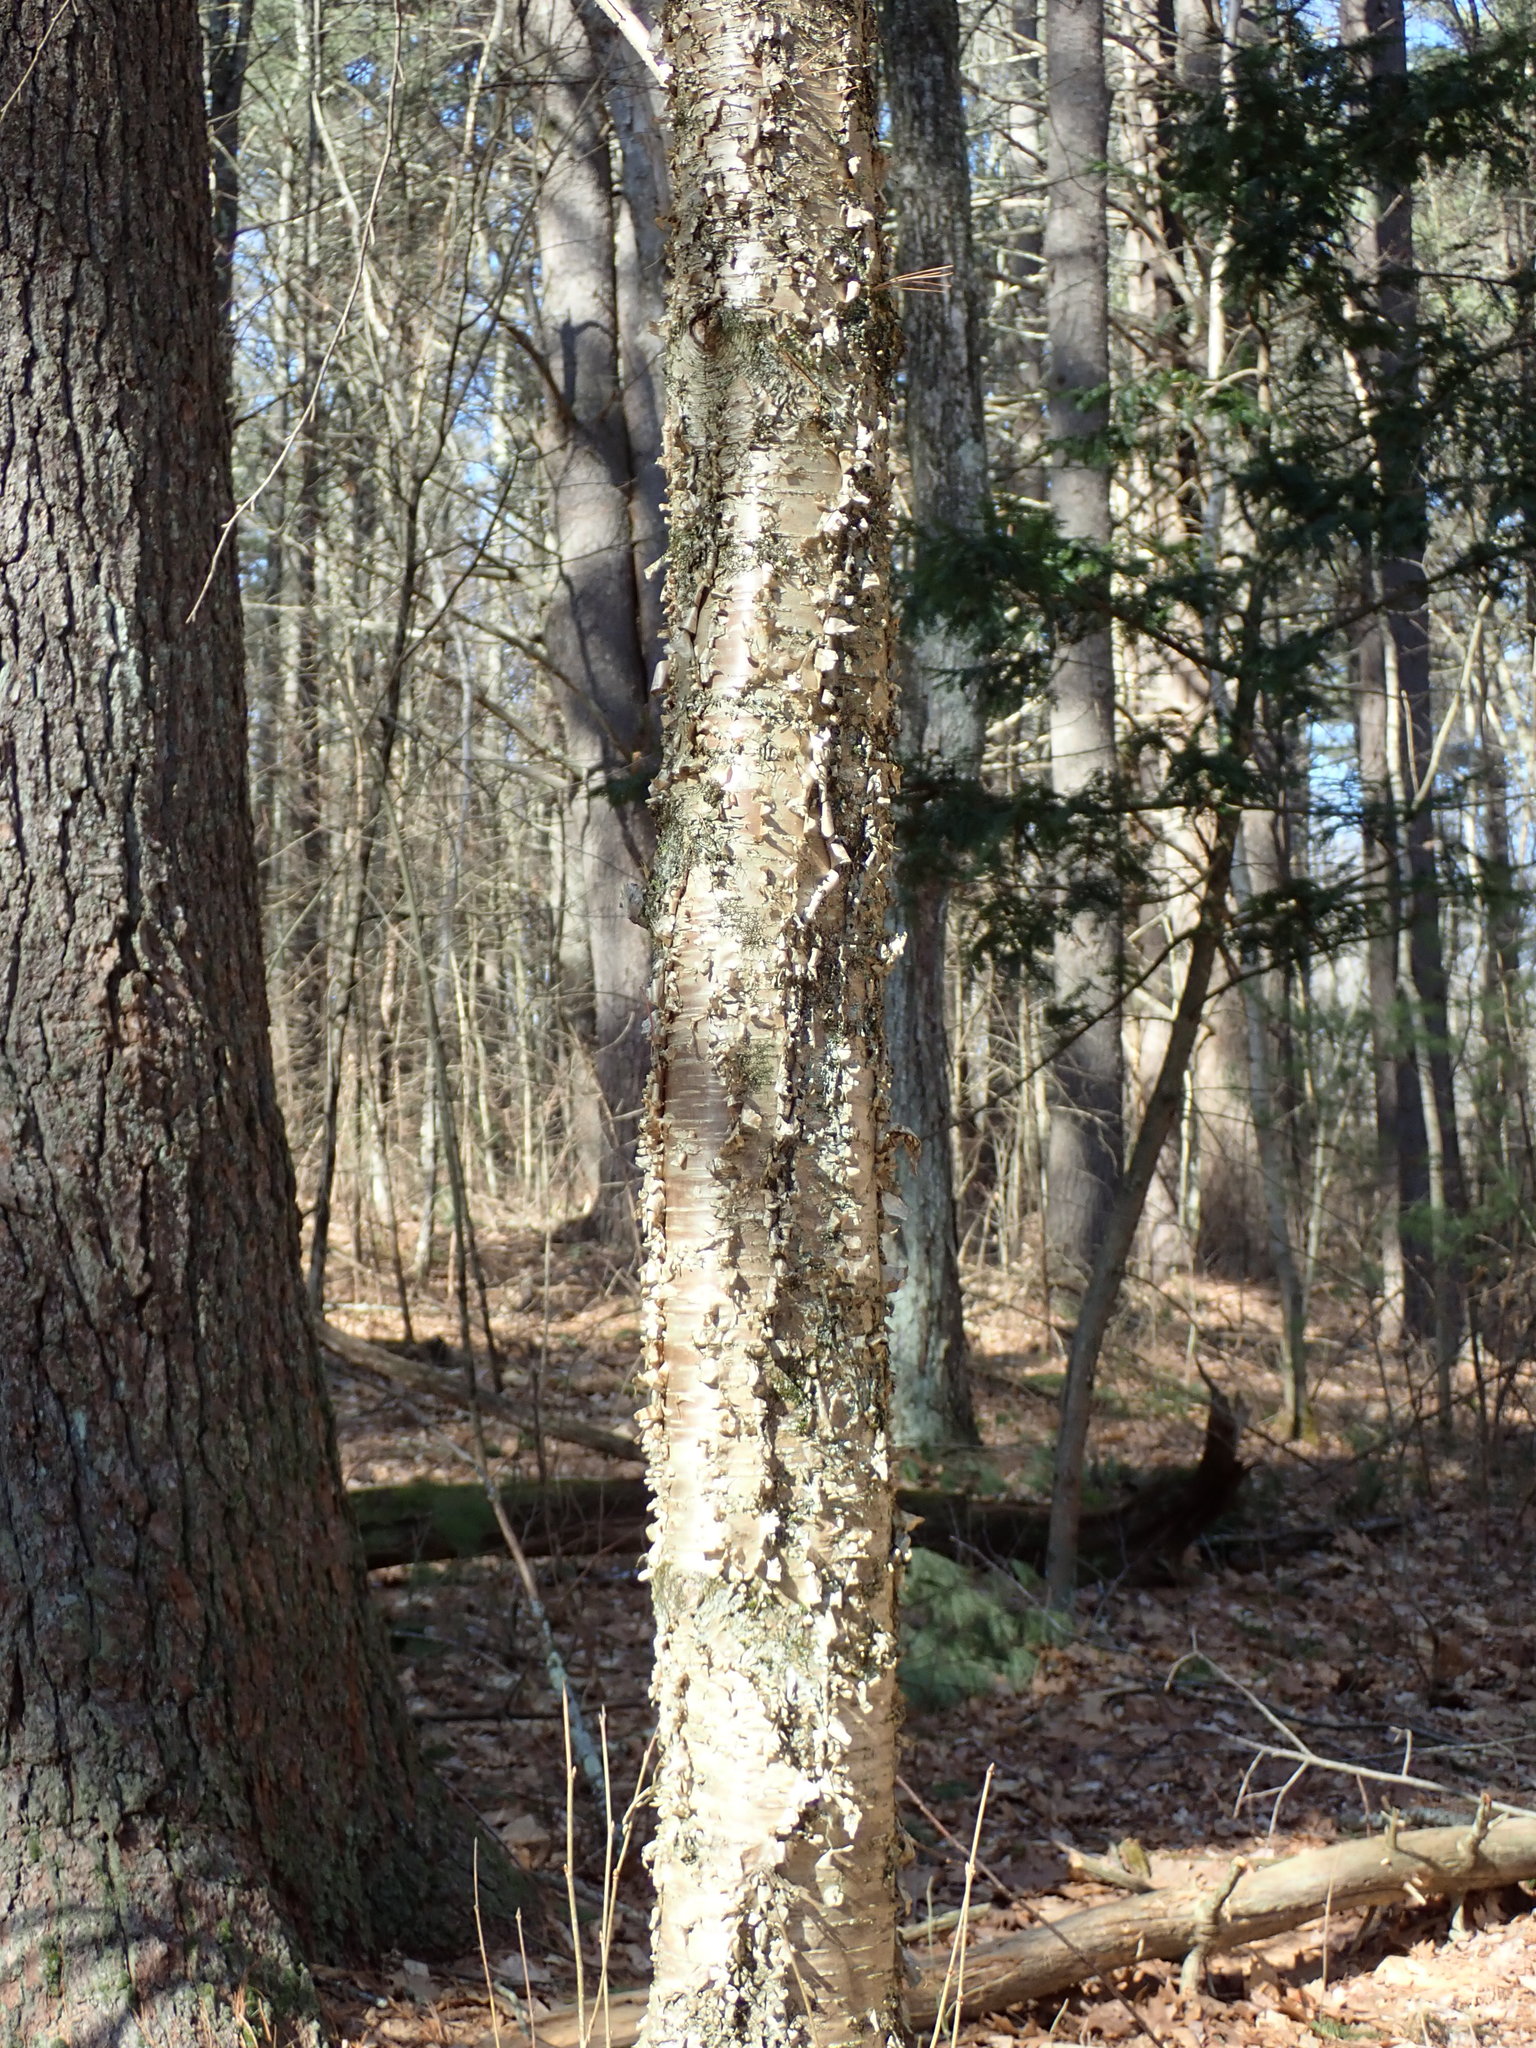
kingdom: Plantae
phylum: Tracheophyta
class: Magnoliopsida
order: Fagales
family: Betulaceae
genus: Betula
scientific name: Betula alleghaniensis
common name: Yellow birch
